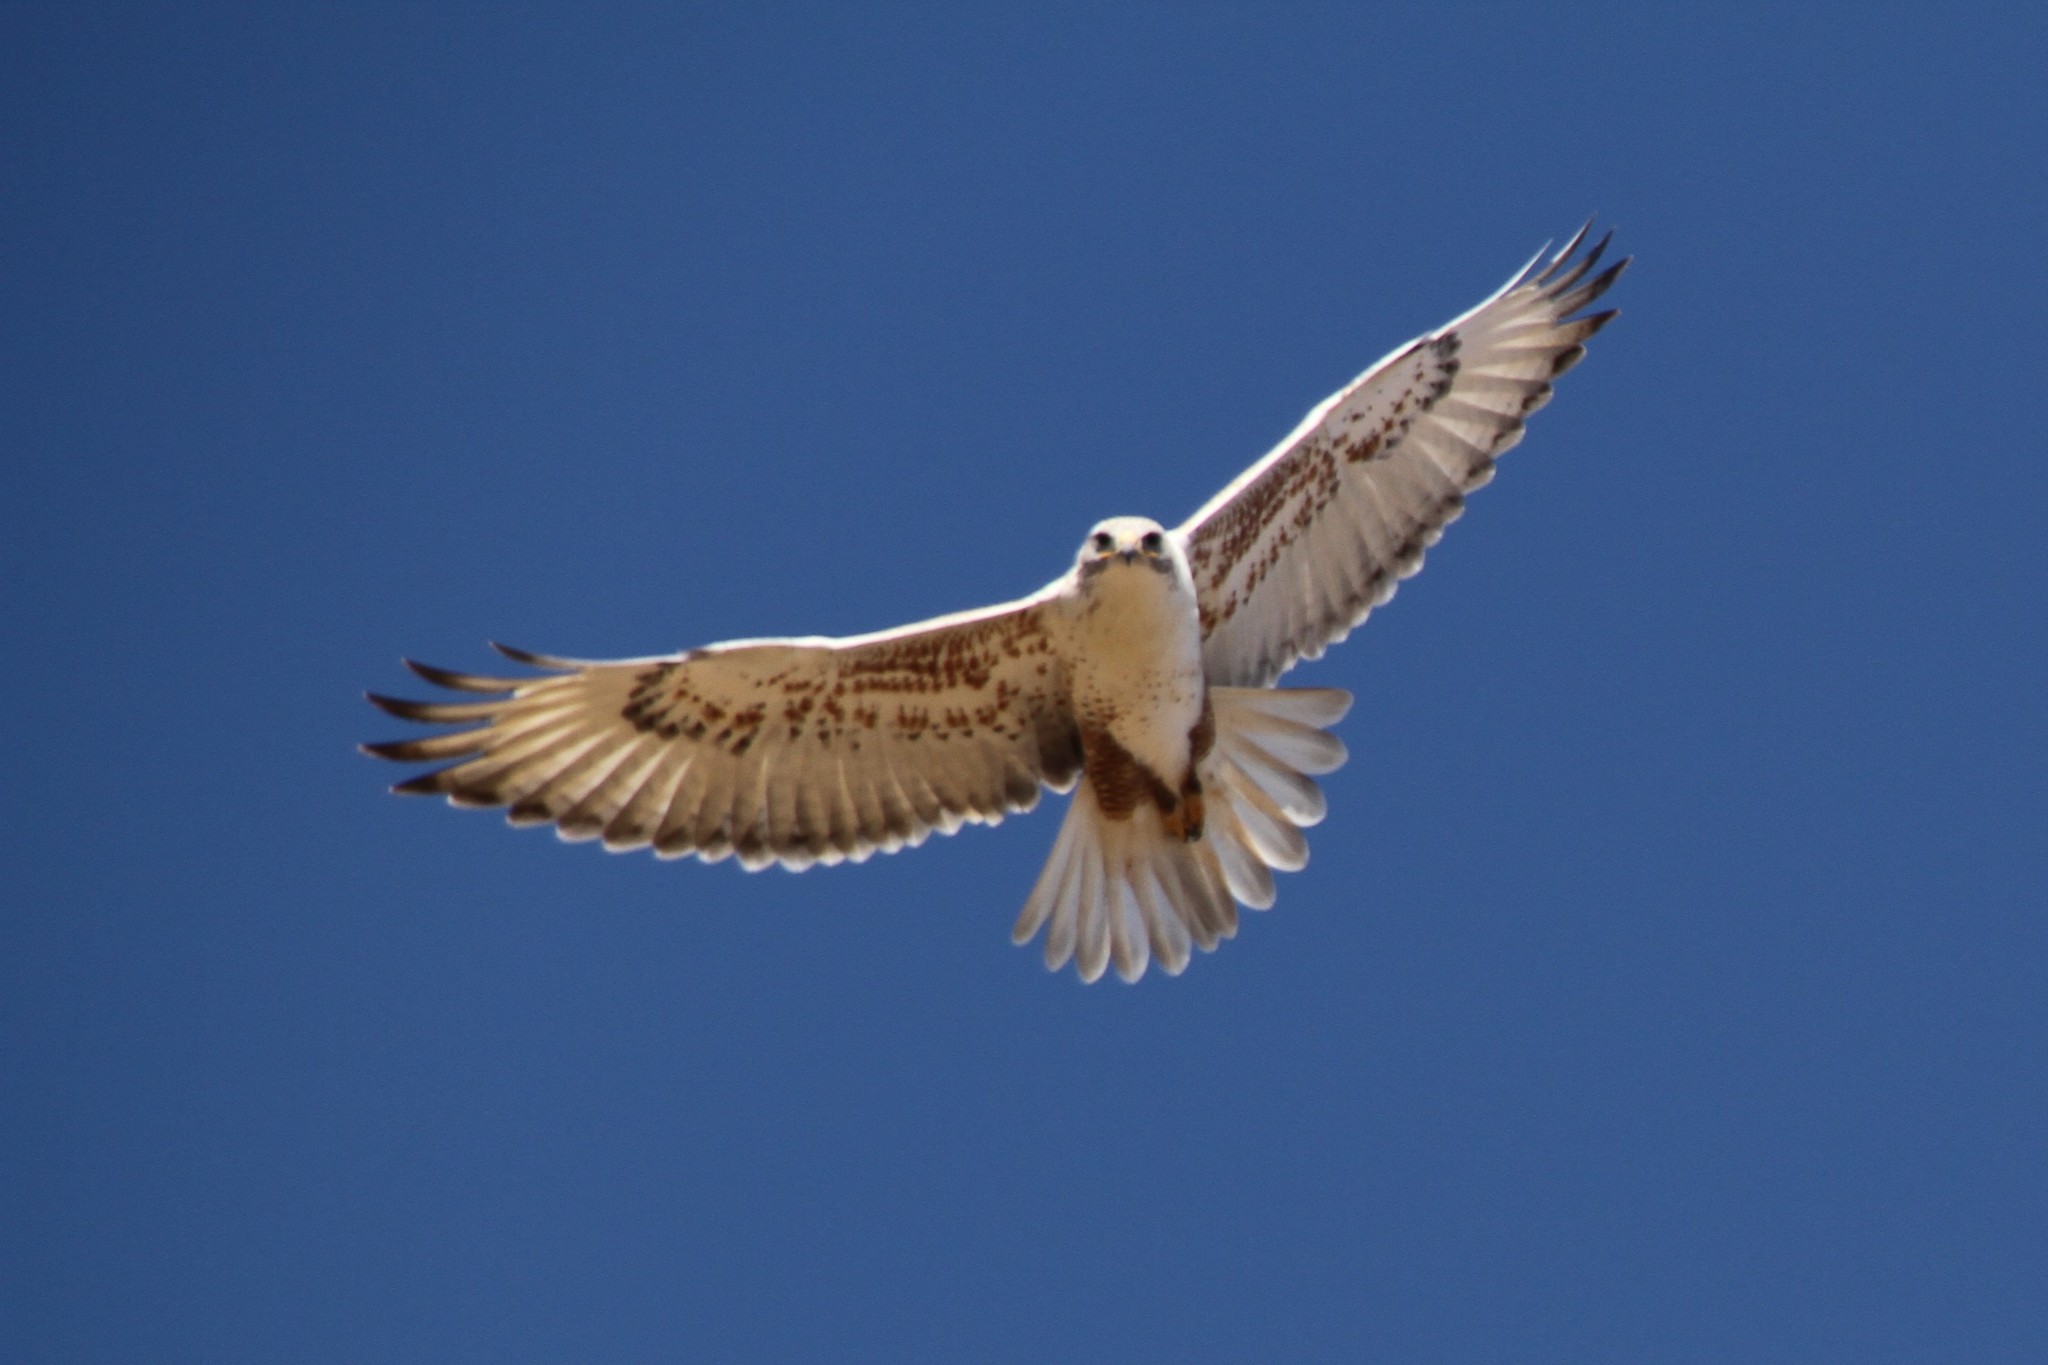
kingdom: Animalia
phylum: Chordata
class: Aves
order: Accipitriformes
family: Accipitridae
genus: Buteo
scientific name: Buteo regalis
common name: Ferruginous hawk
